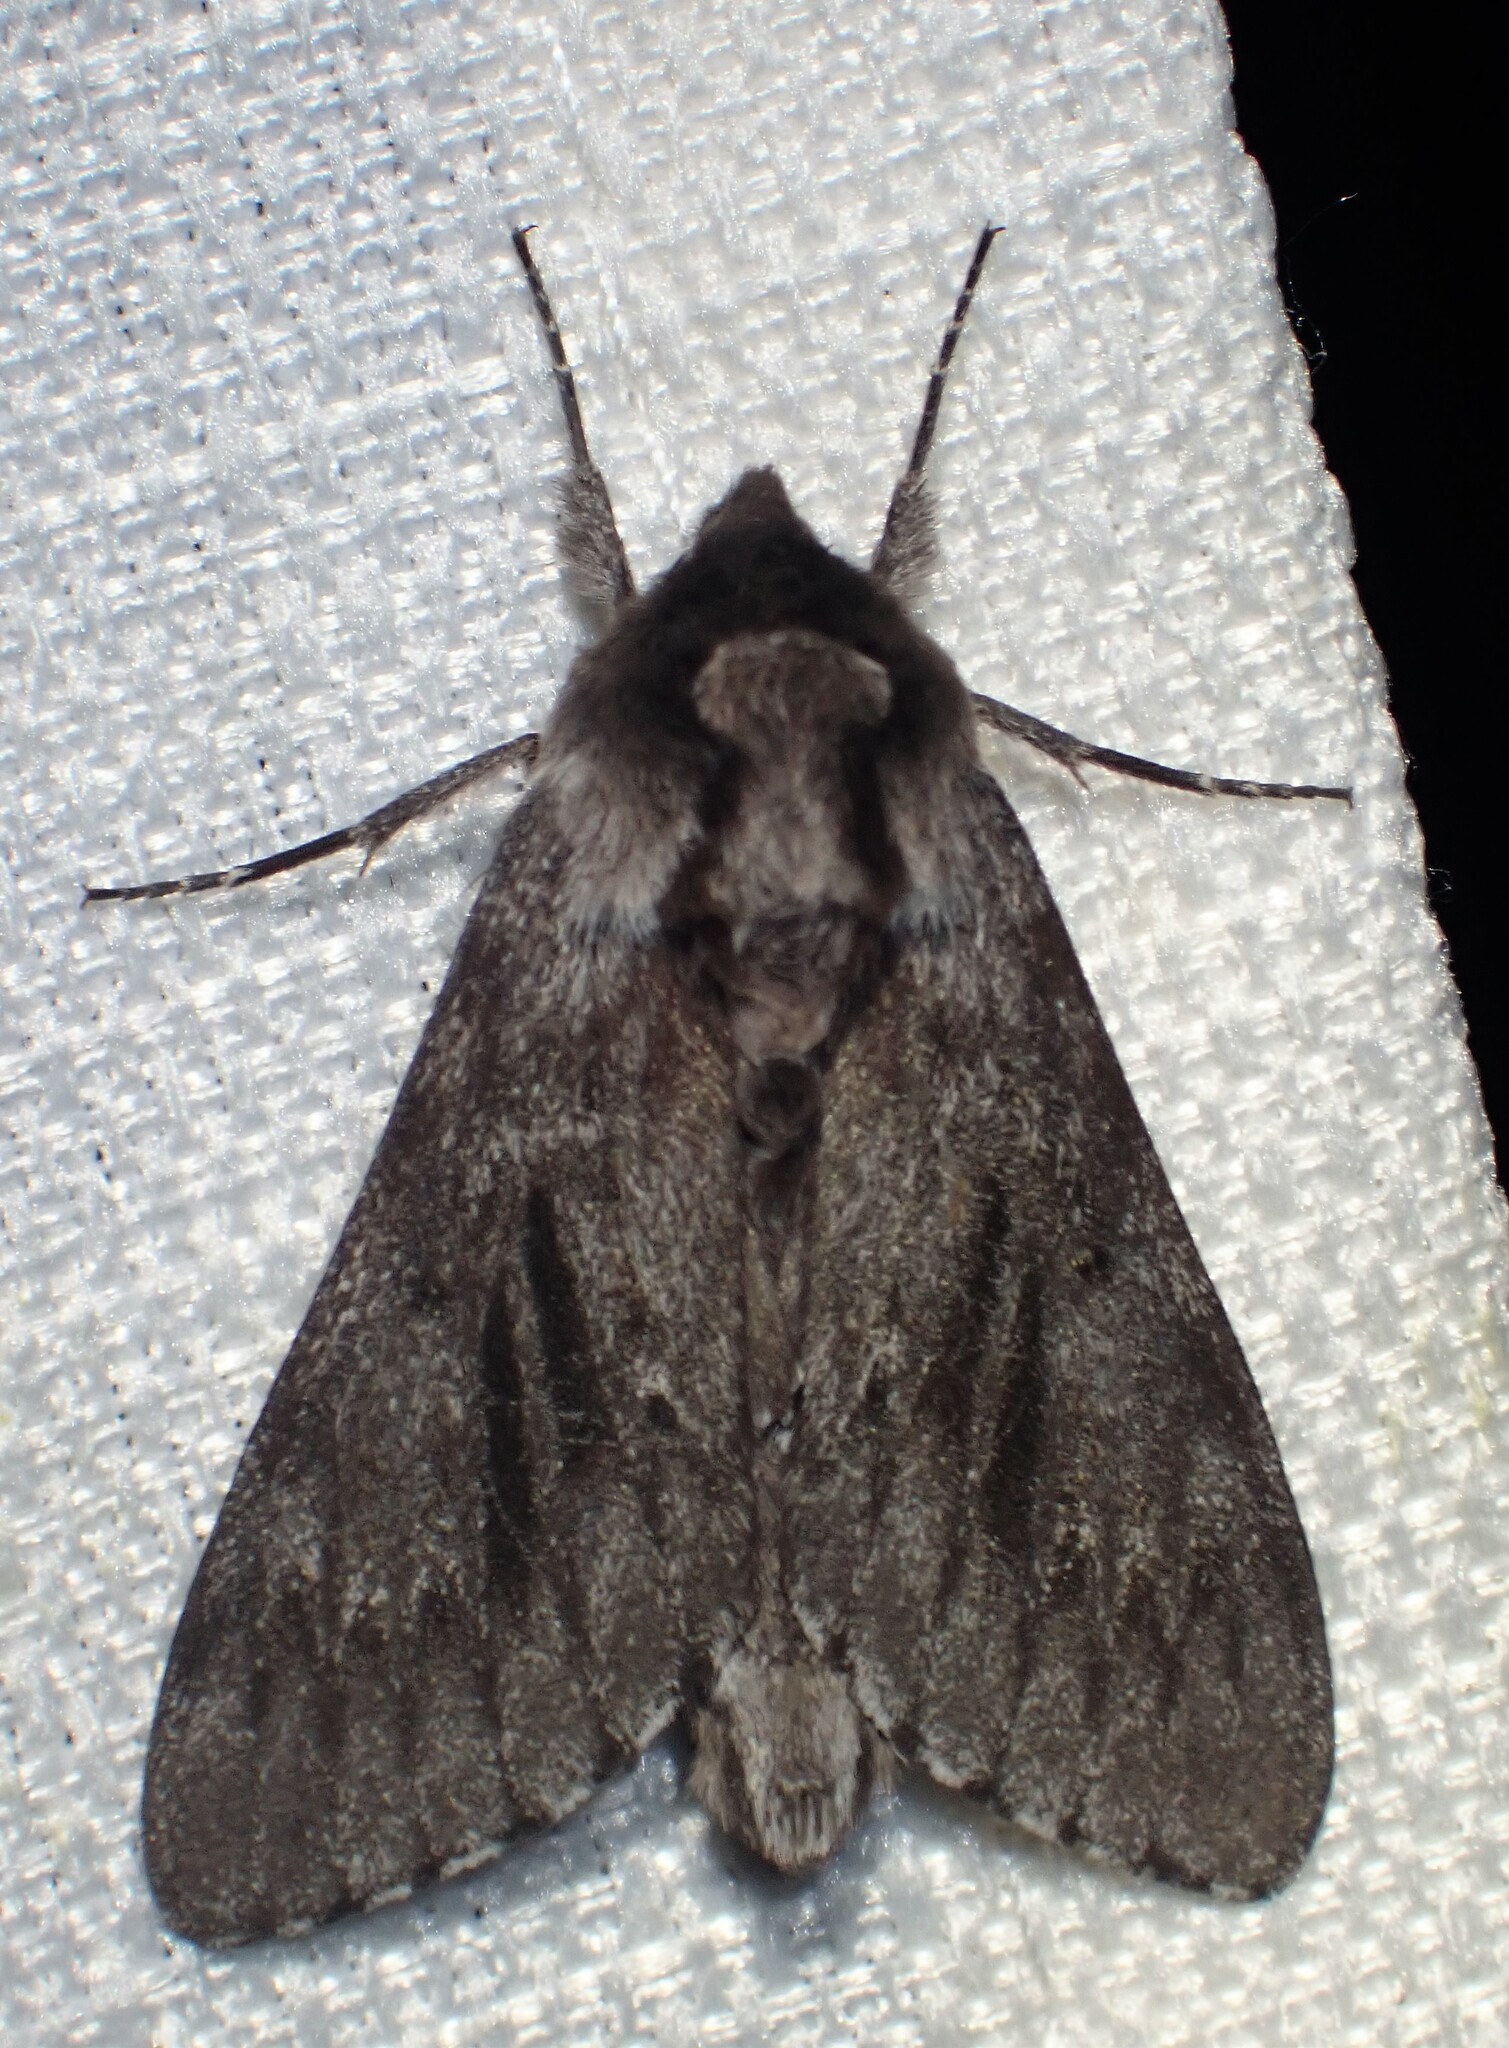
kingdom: Animalia
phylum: Arthropoda
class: Insecta
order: Lepidoptera
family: Sphingidae
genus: Lapara
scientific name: Lapara bombycoides
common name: Northern pine sphinx
